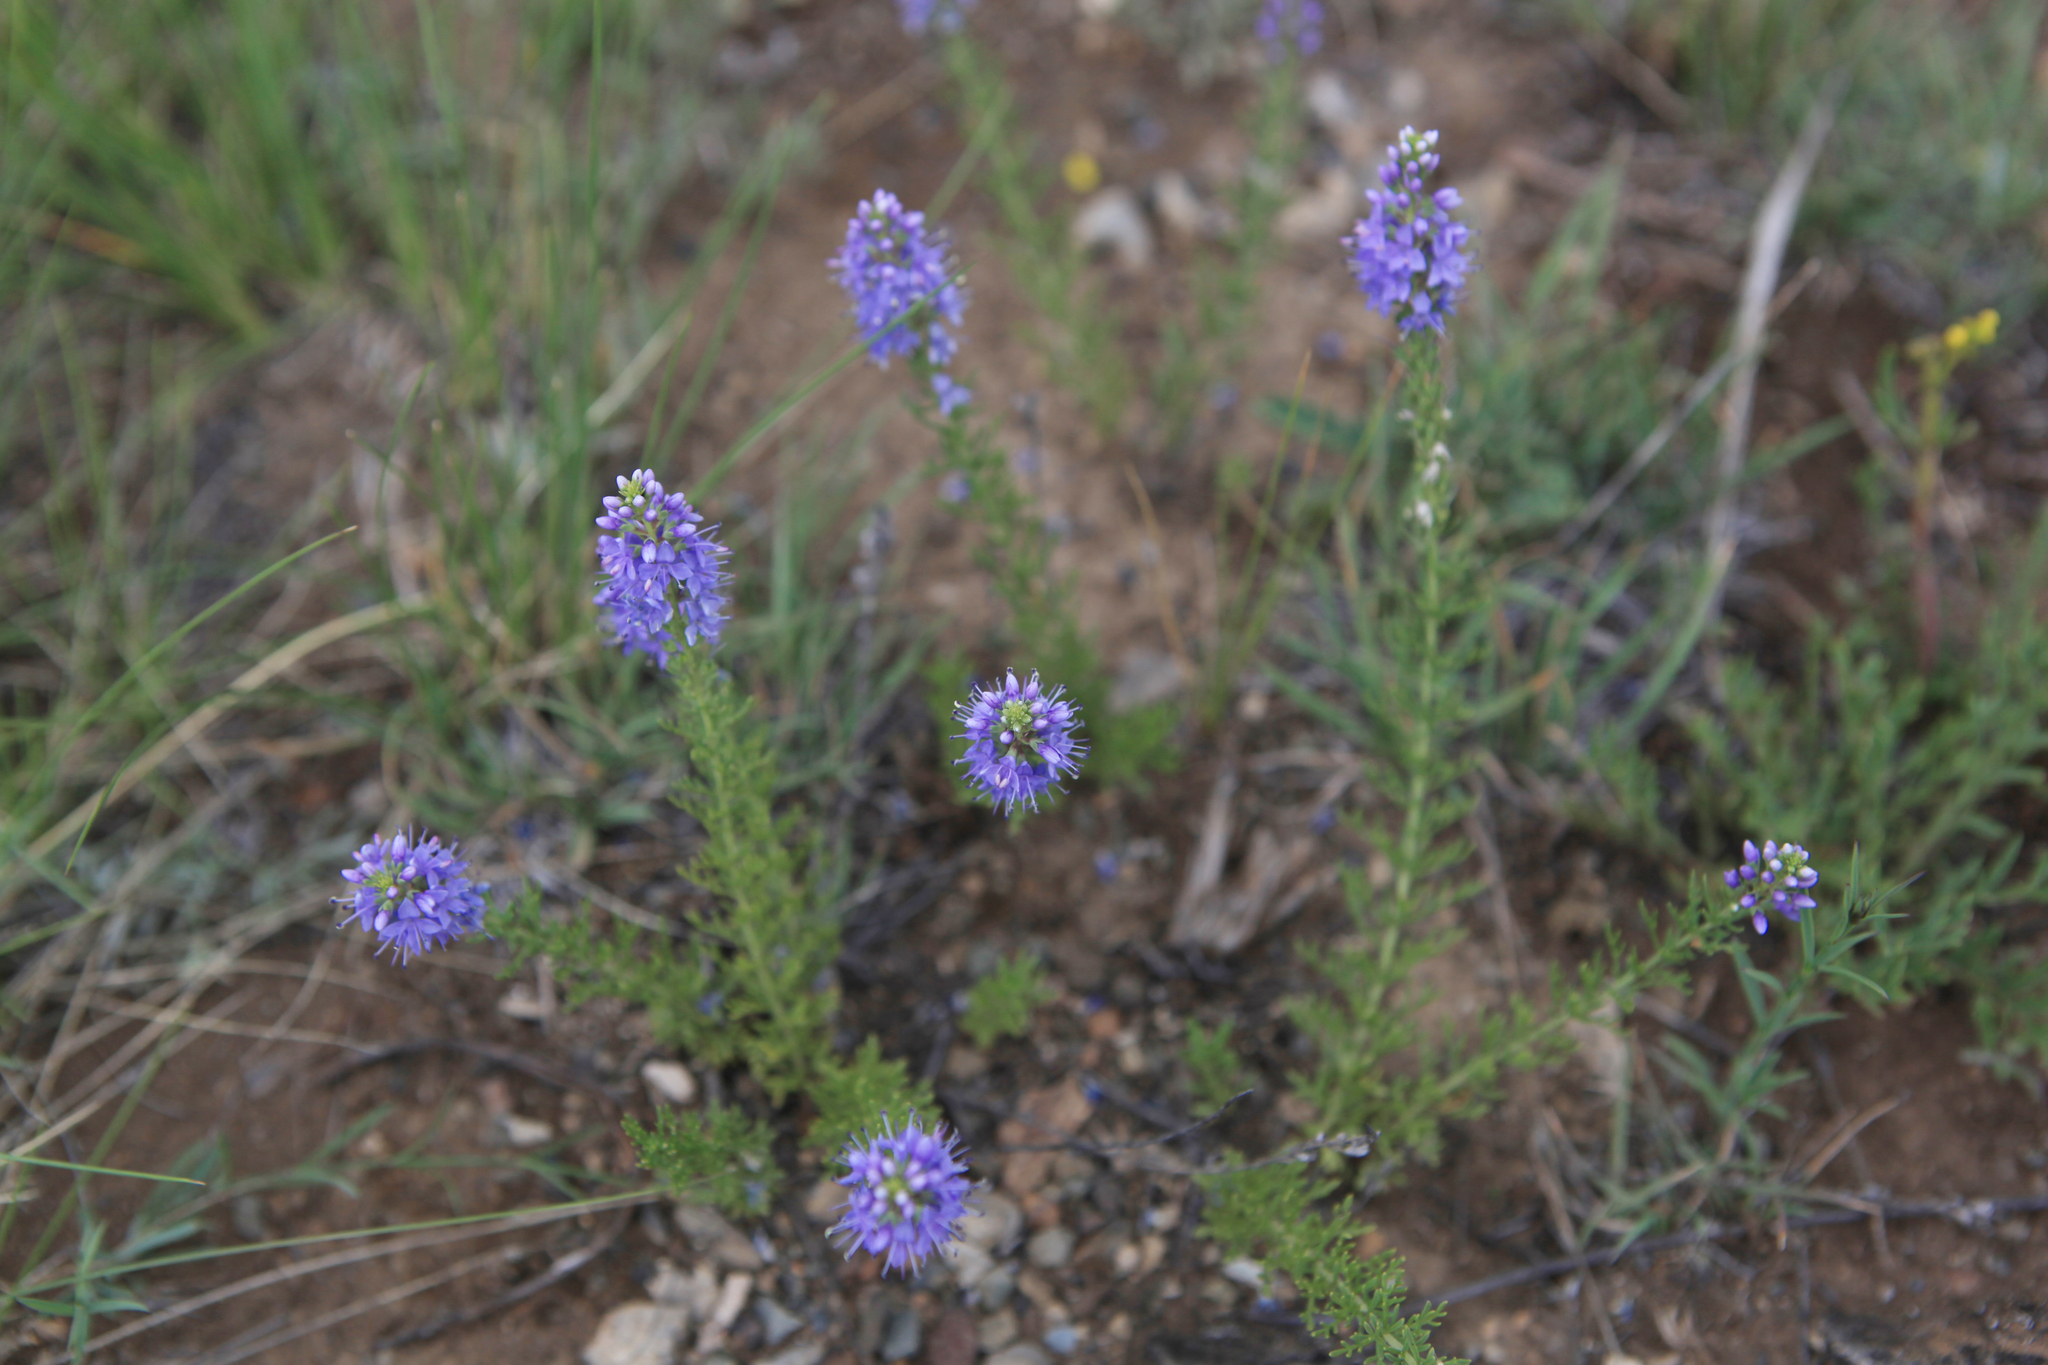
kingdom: Plantae
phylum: Tracheophyta
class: Magnoliopsida
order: Lamiales
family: Plantaginaceae
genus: Veronica
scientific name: Veronica pinnata
